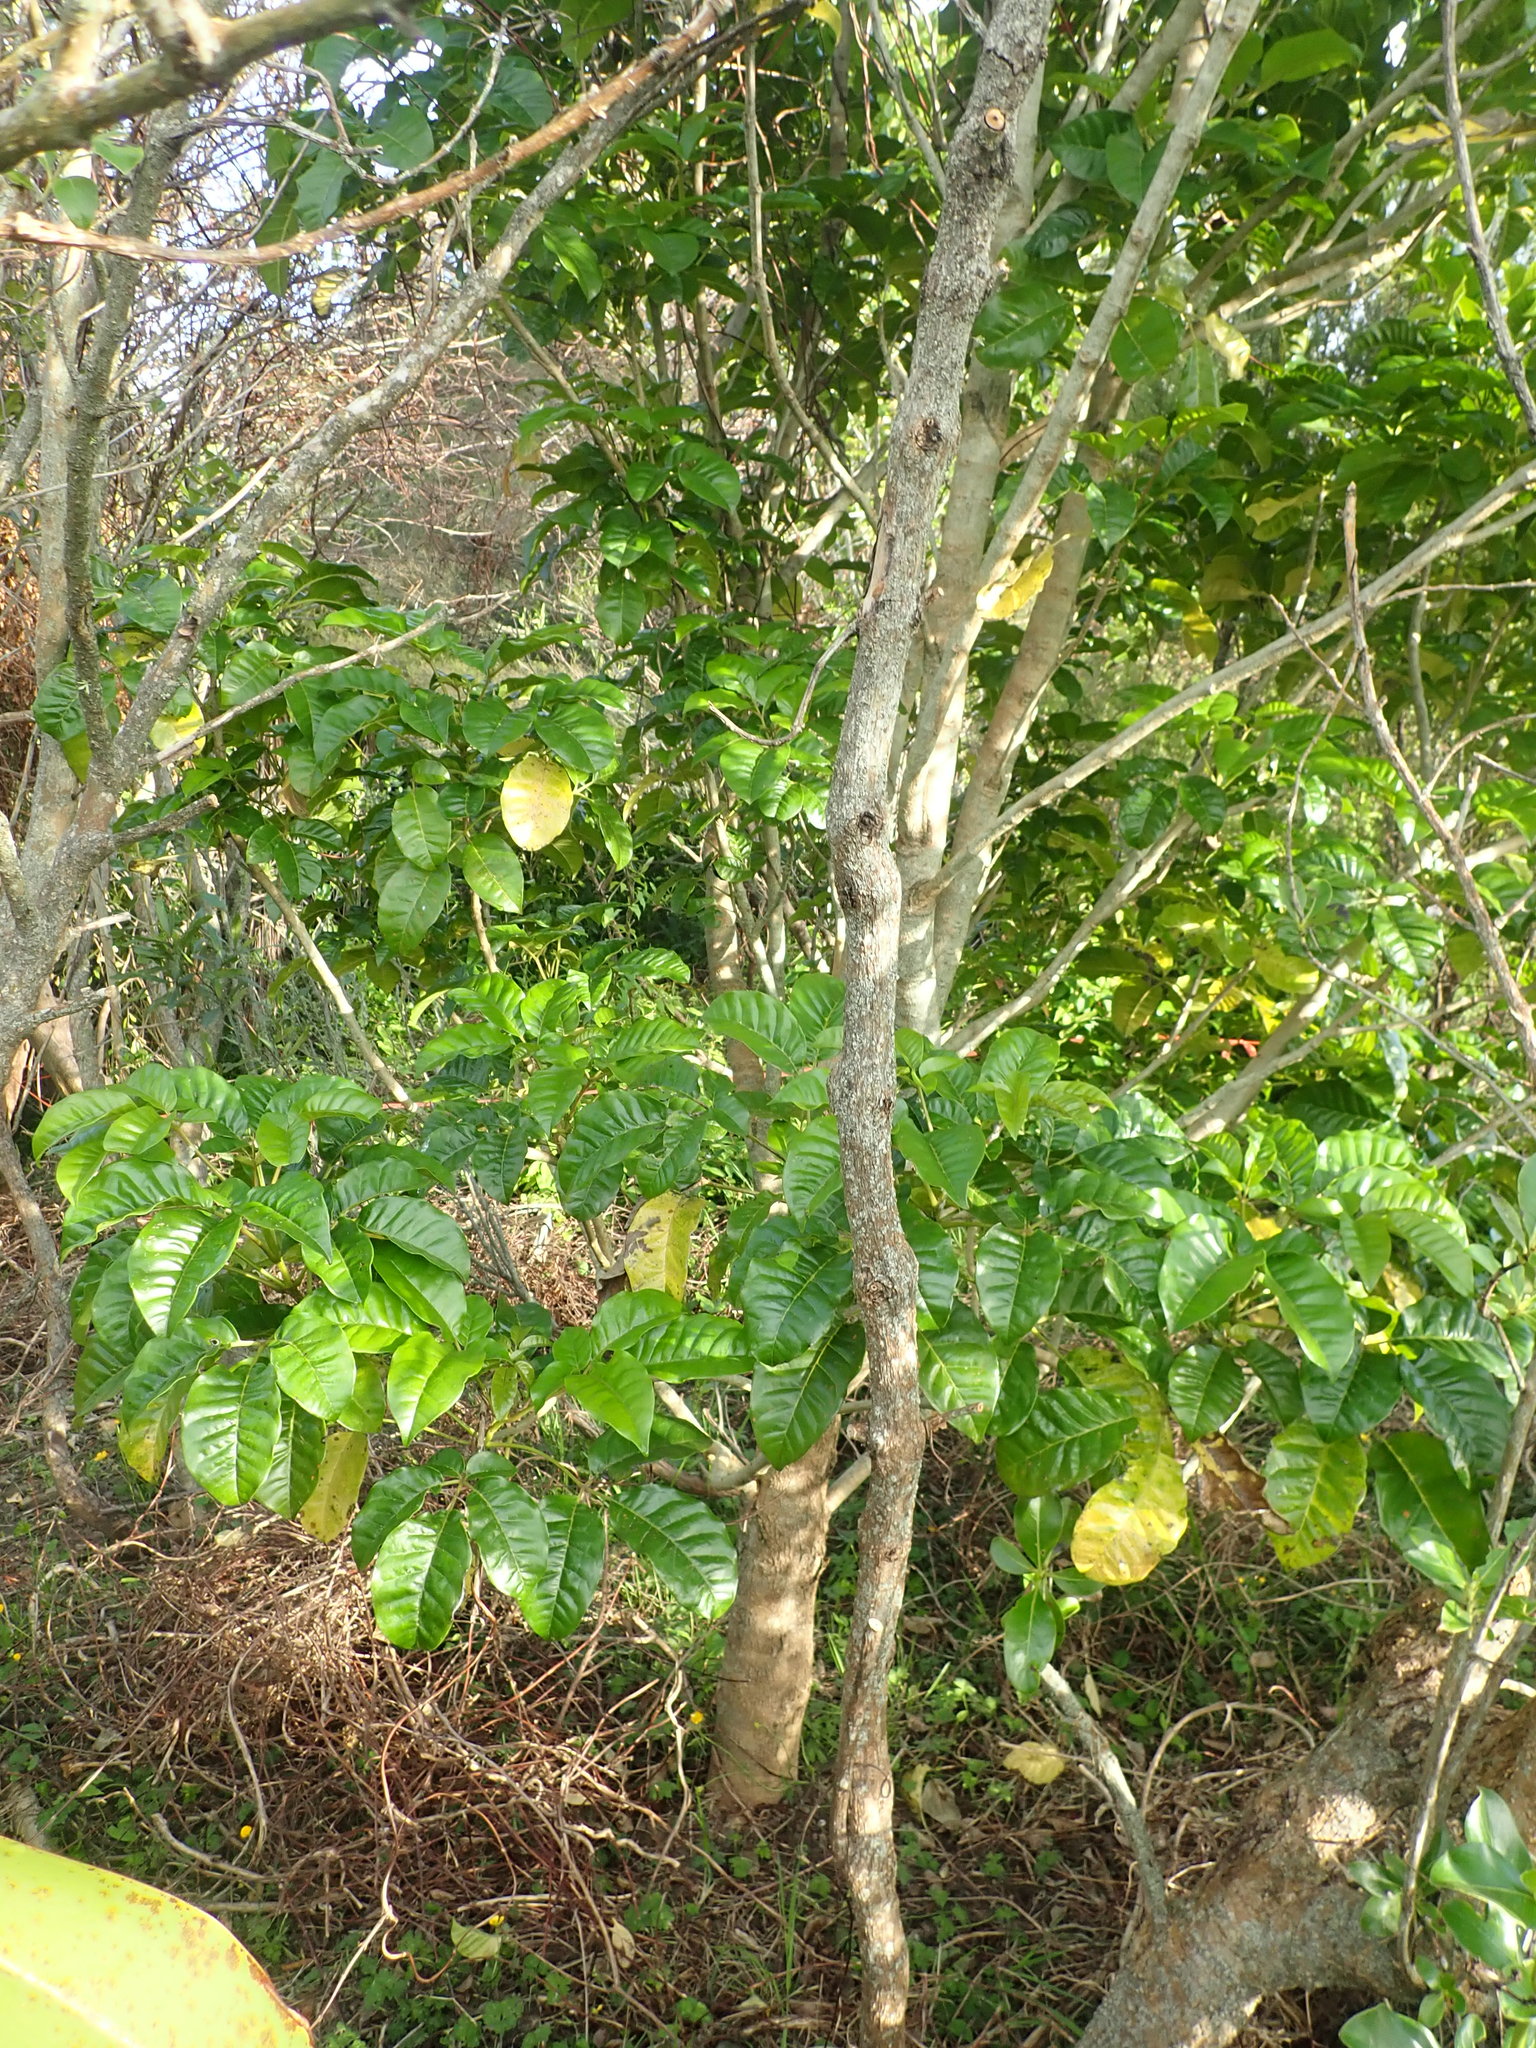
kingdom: Plantae
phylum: Tracheophyta
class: Magnoliopsida
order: Lamiales
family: Lamiaceae
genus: Vitex
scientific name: Vitex lucens
